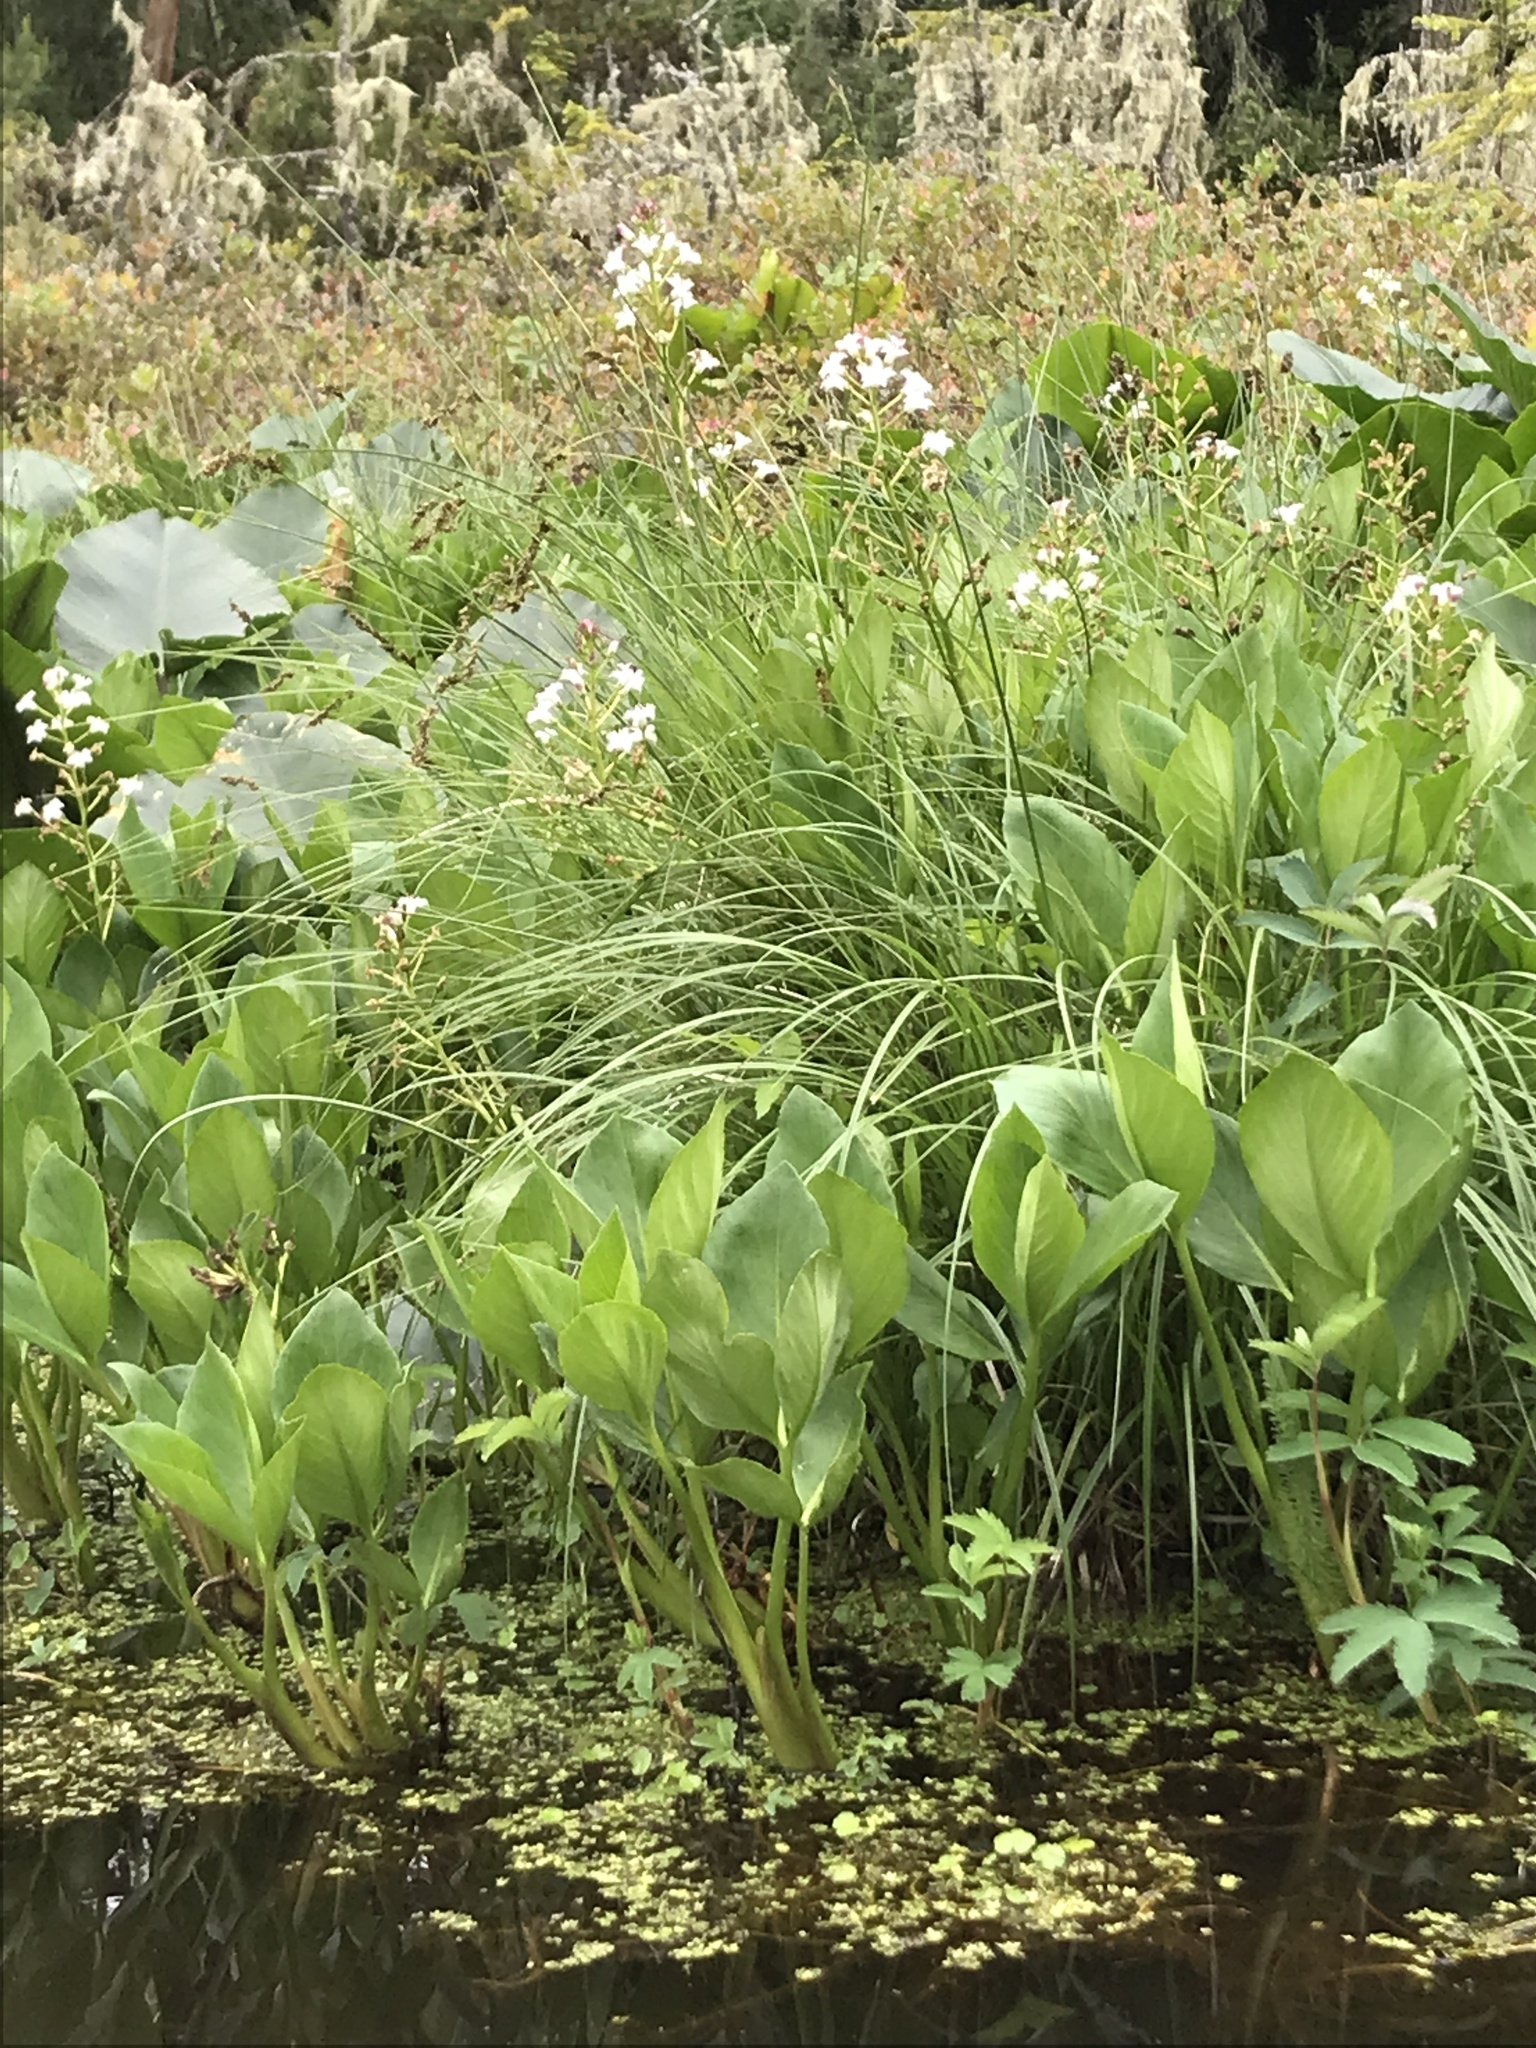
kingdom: Plantae
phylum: Tracheophyta
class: Magnoliopsida
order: Asterales
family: Menyanthaceae
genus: Menyanthes
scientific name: Menyanthes trifoliata
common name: Bogbean
